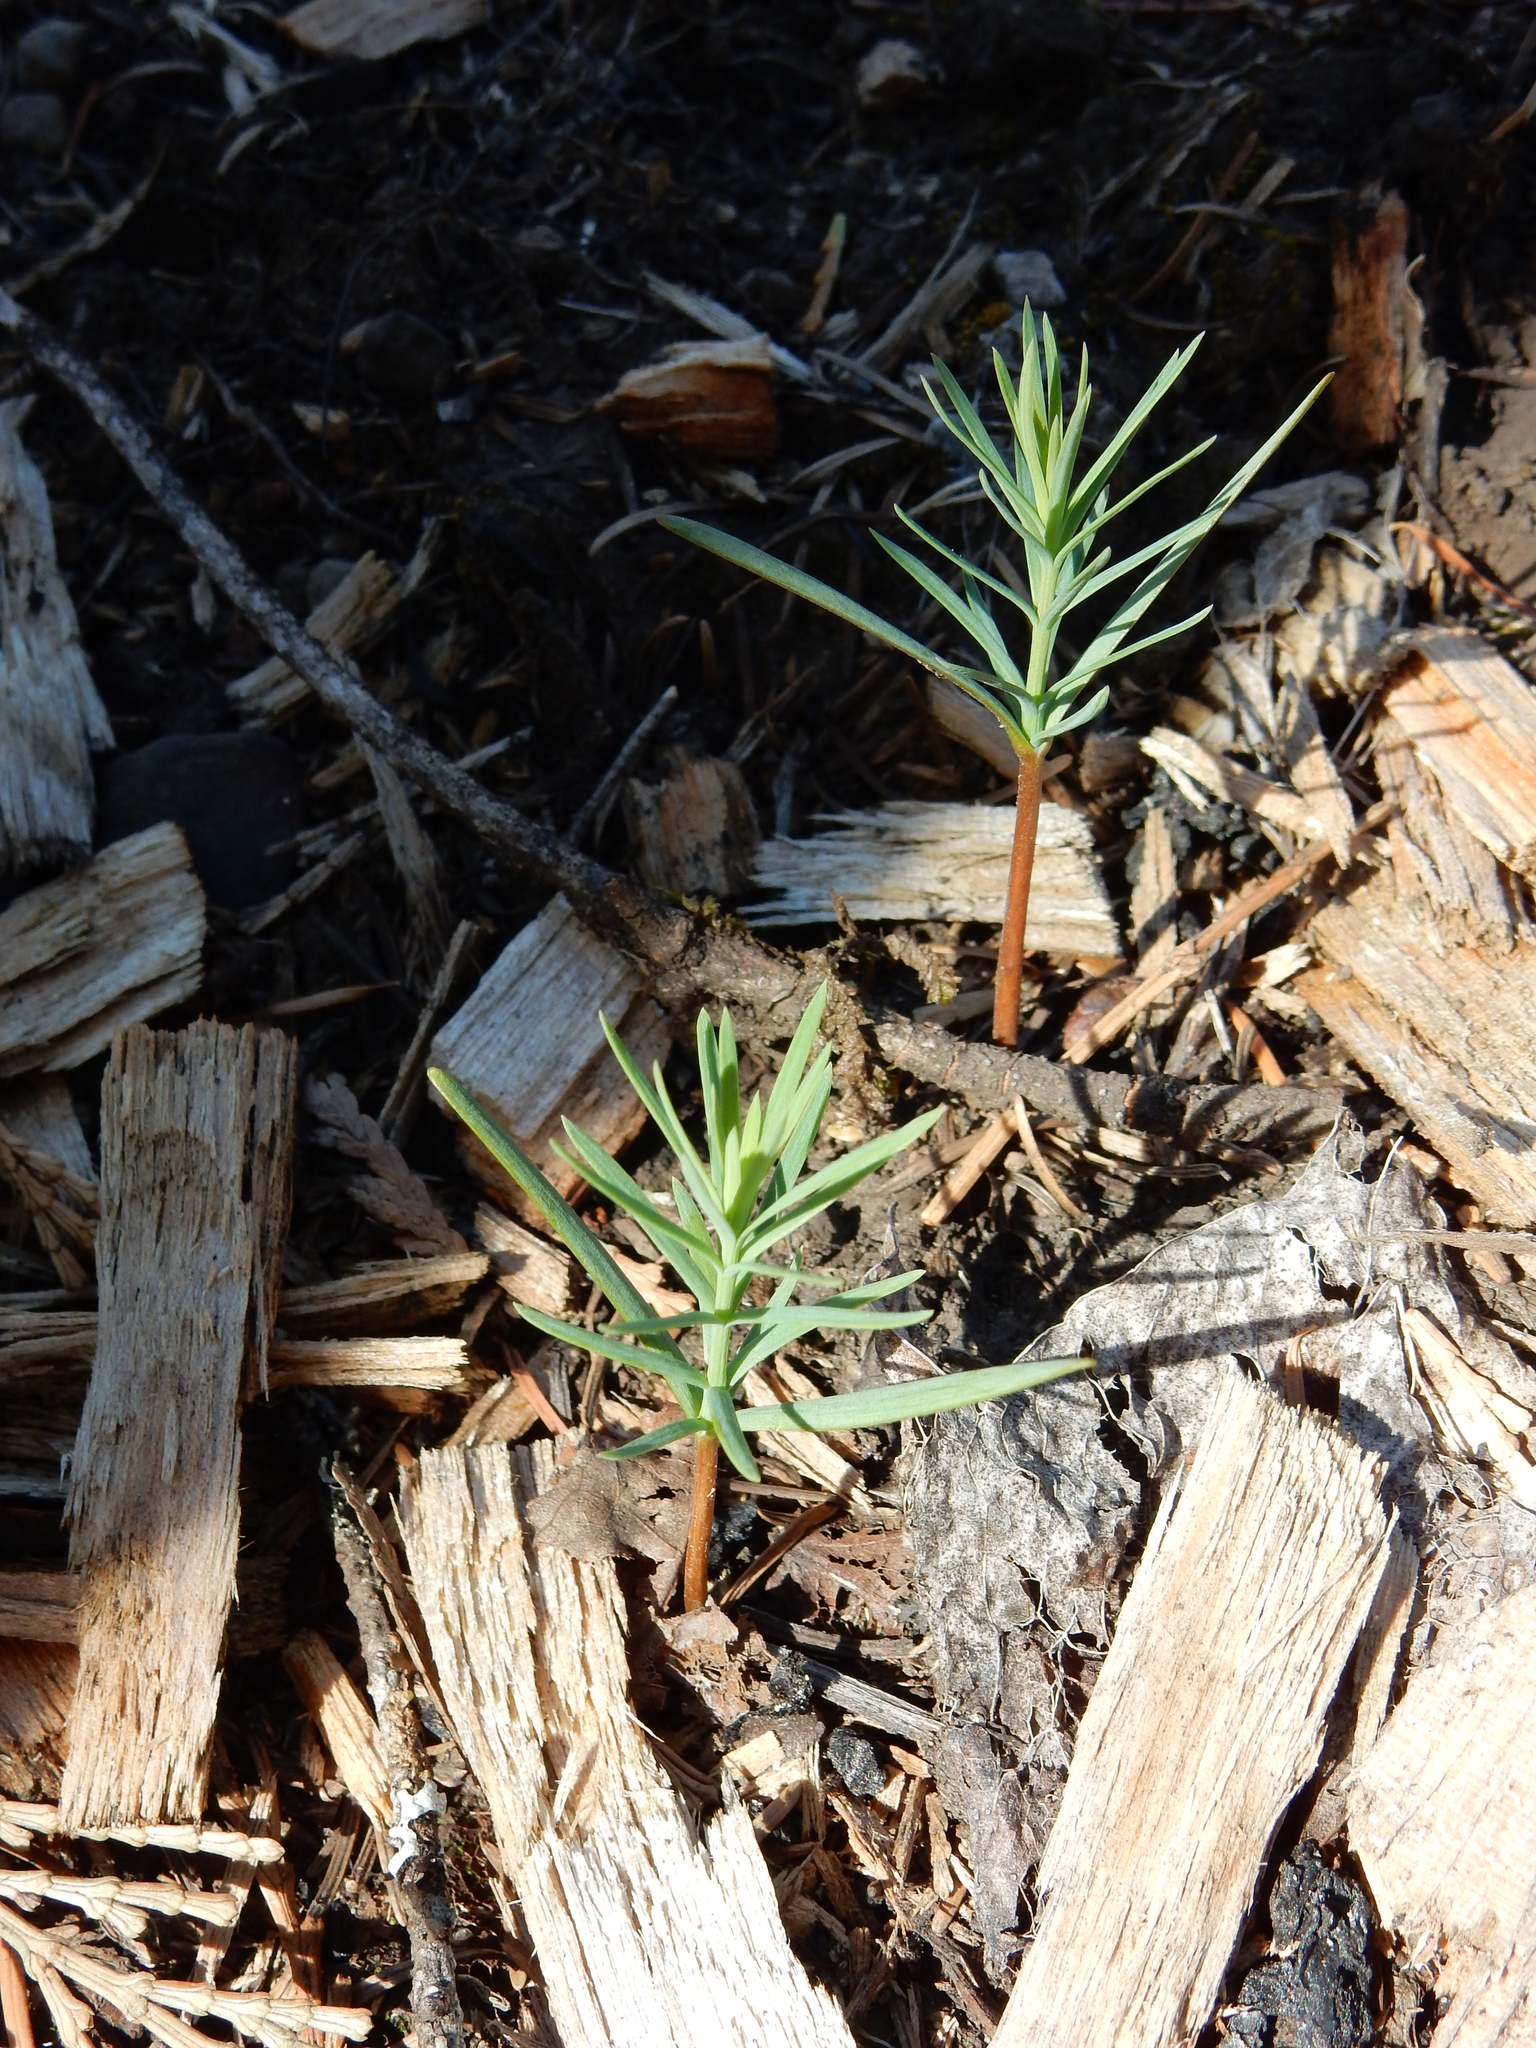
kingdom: Plantae
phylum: Tracheophyta
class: Pinopsida
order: Pinales
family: Pinaceae
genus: Pseudotsuga
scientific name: Pseudotsuga menziesii
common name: Douglas fir
